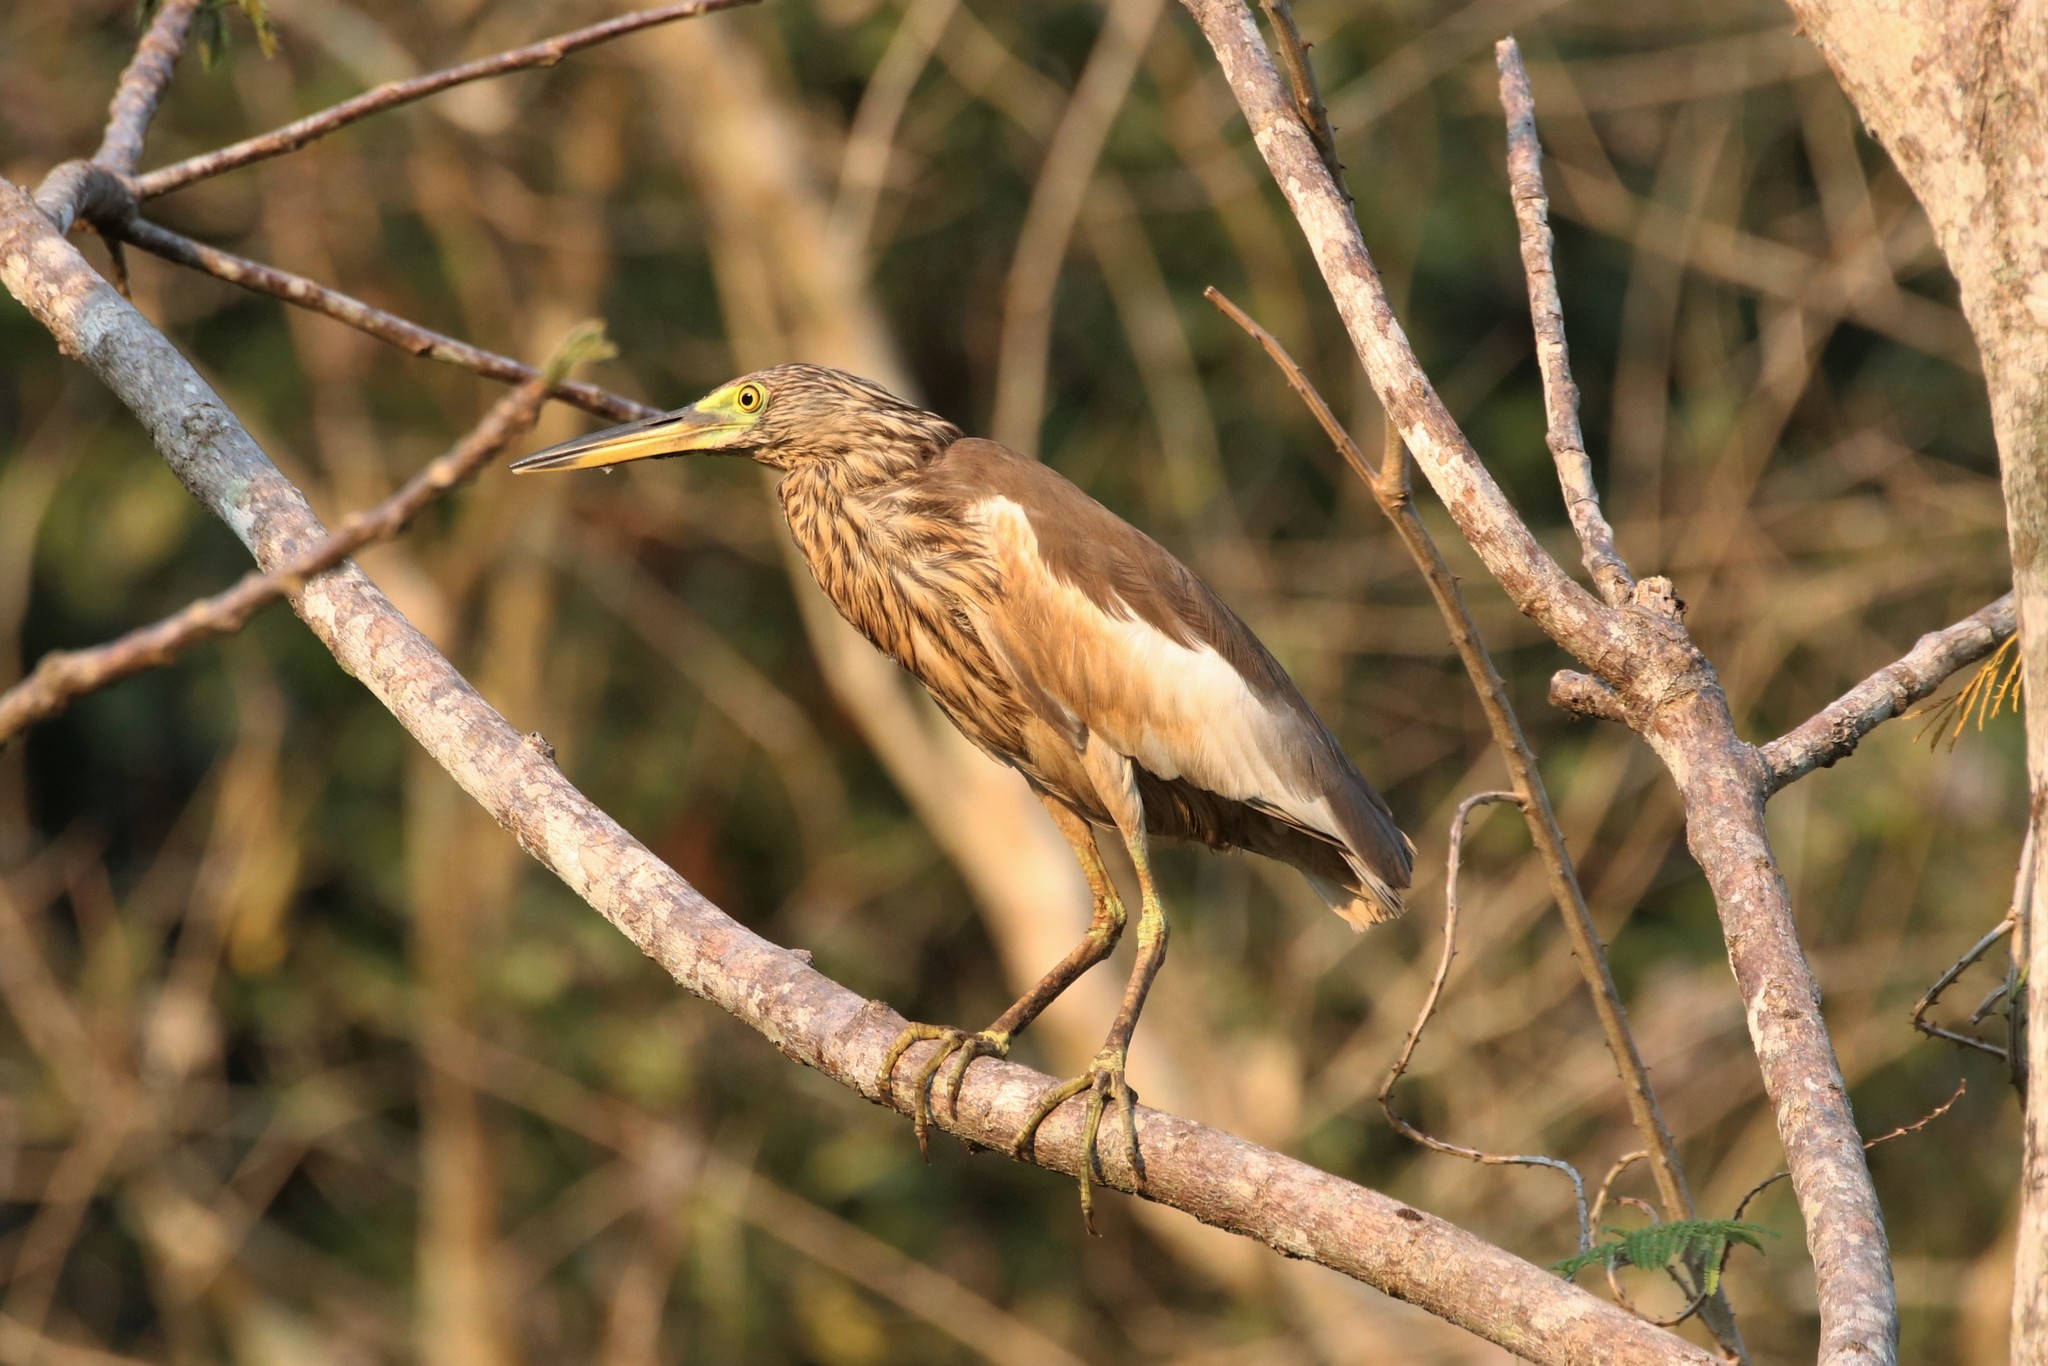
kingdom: Animalia
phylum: Chordata
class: Aves
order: Pelecaniformes
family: Ardeidae
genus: Ardeola
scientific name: Ardeola
